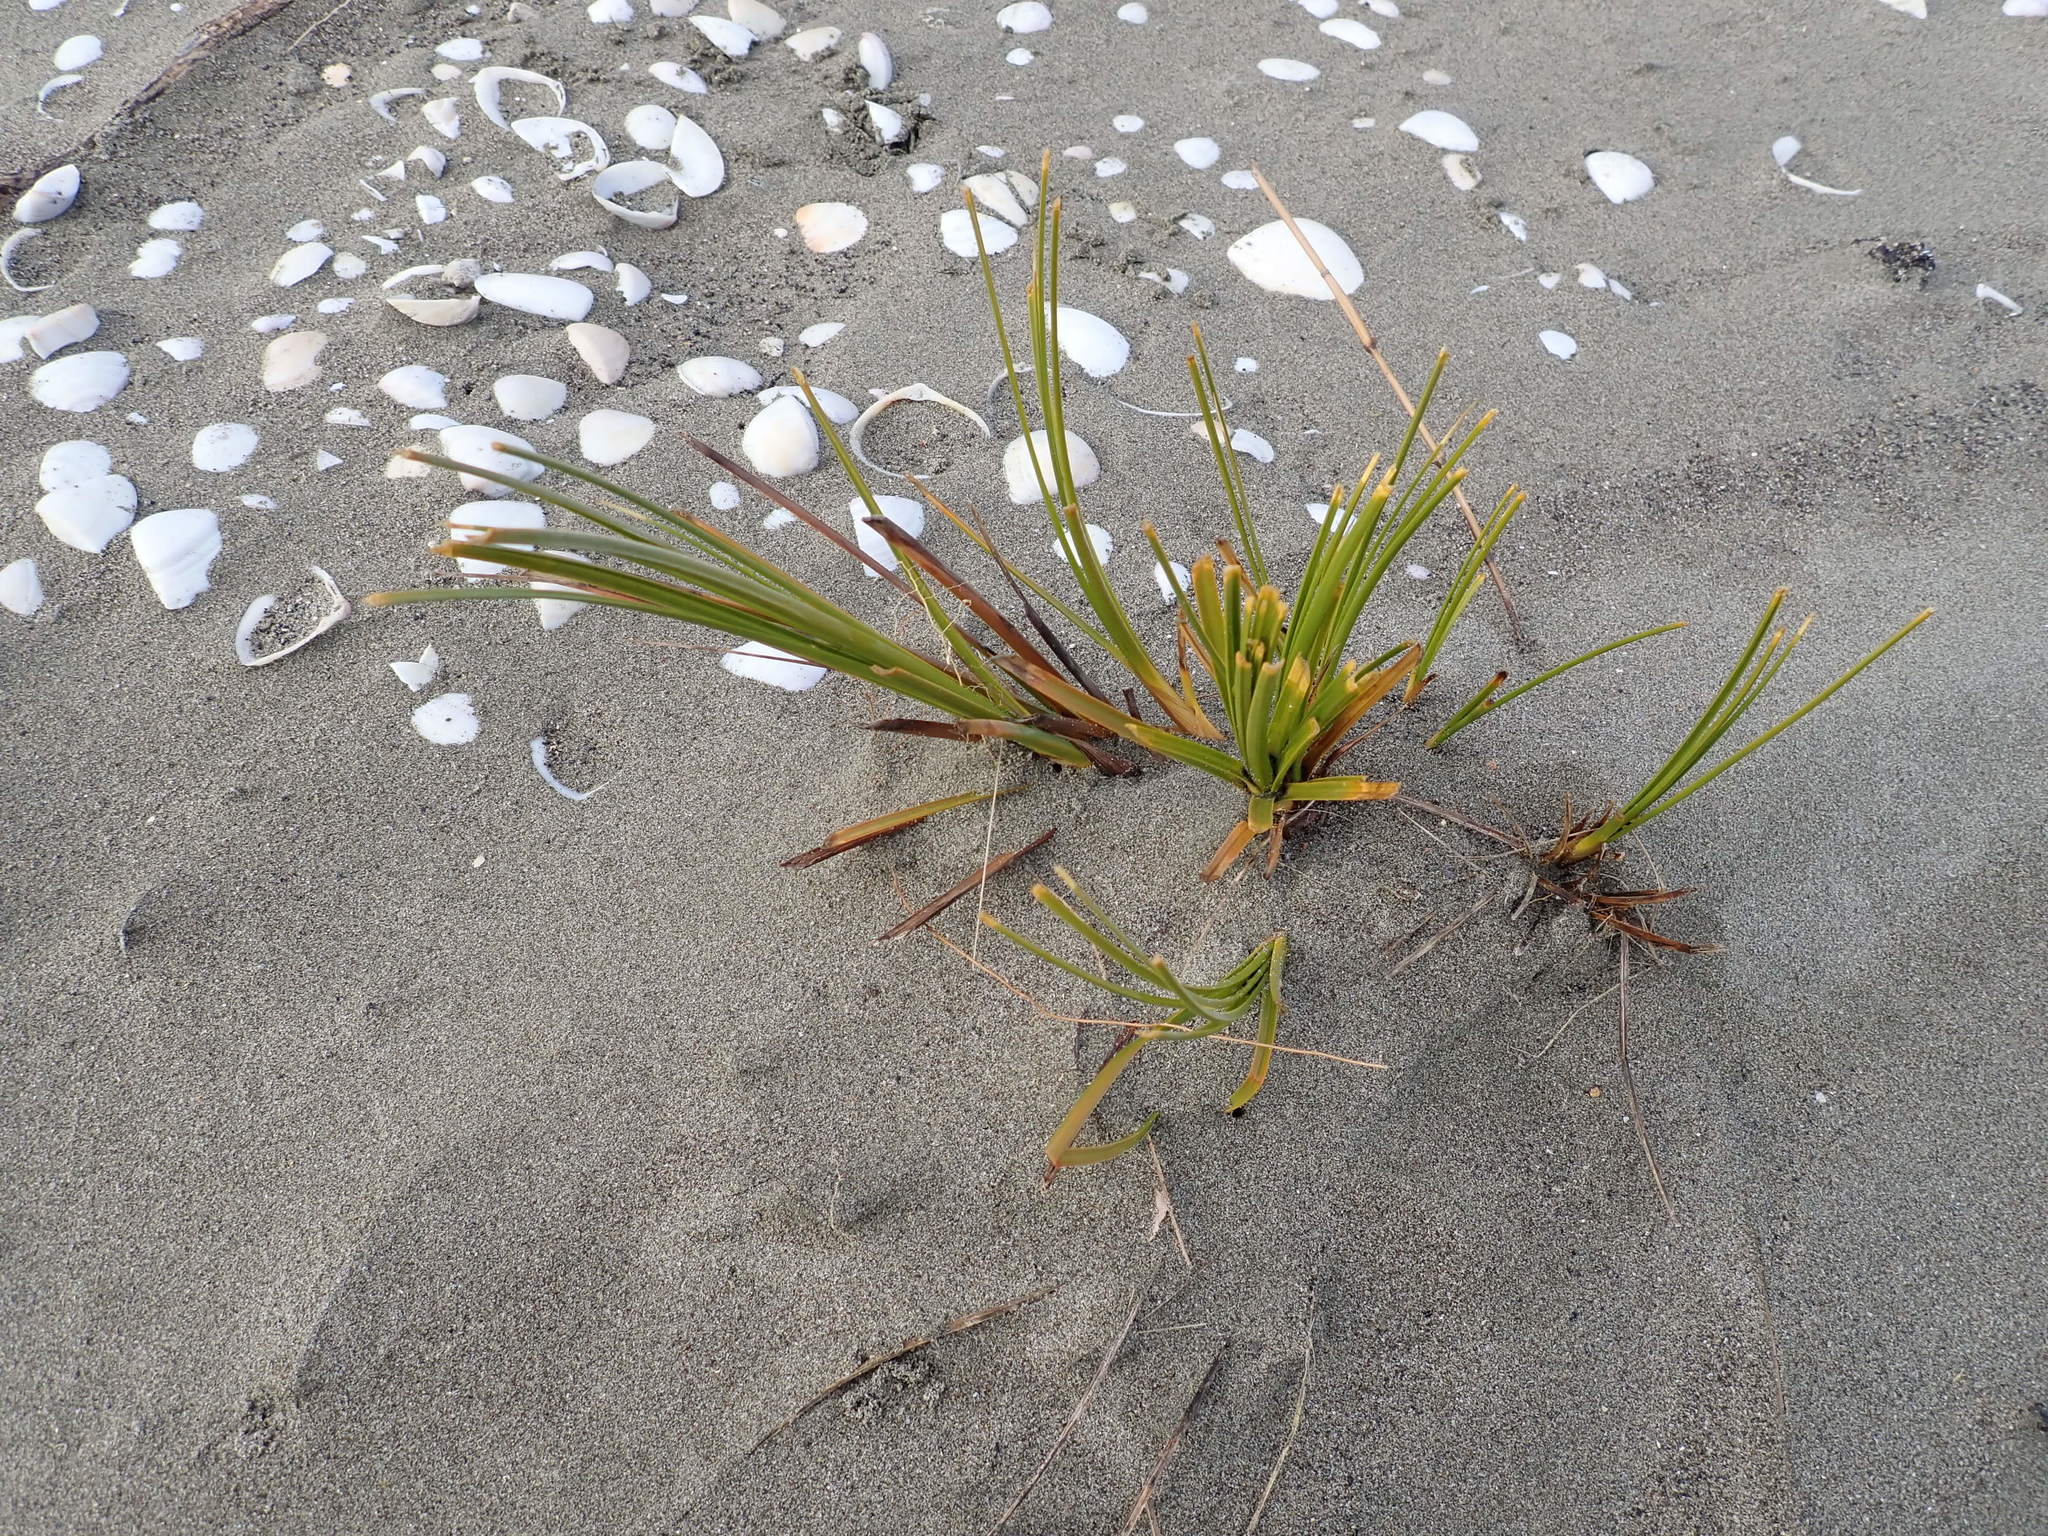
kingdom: Plantae
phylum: Tracheophyta
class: Liliopsida
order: Poales
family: Cyperaceae
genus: Ficinia
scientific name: Ficinia spiralis
